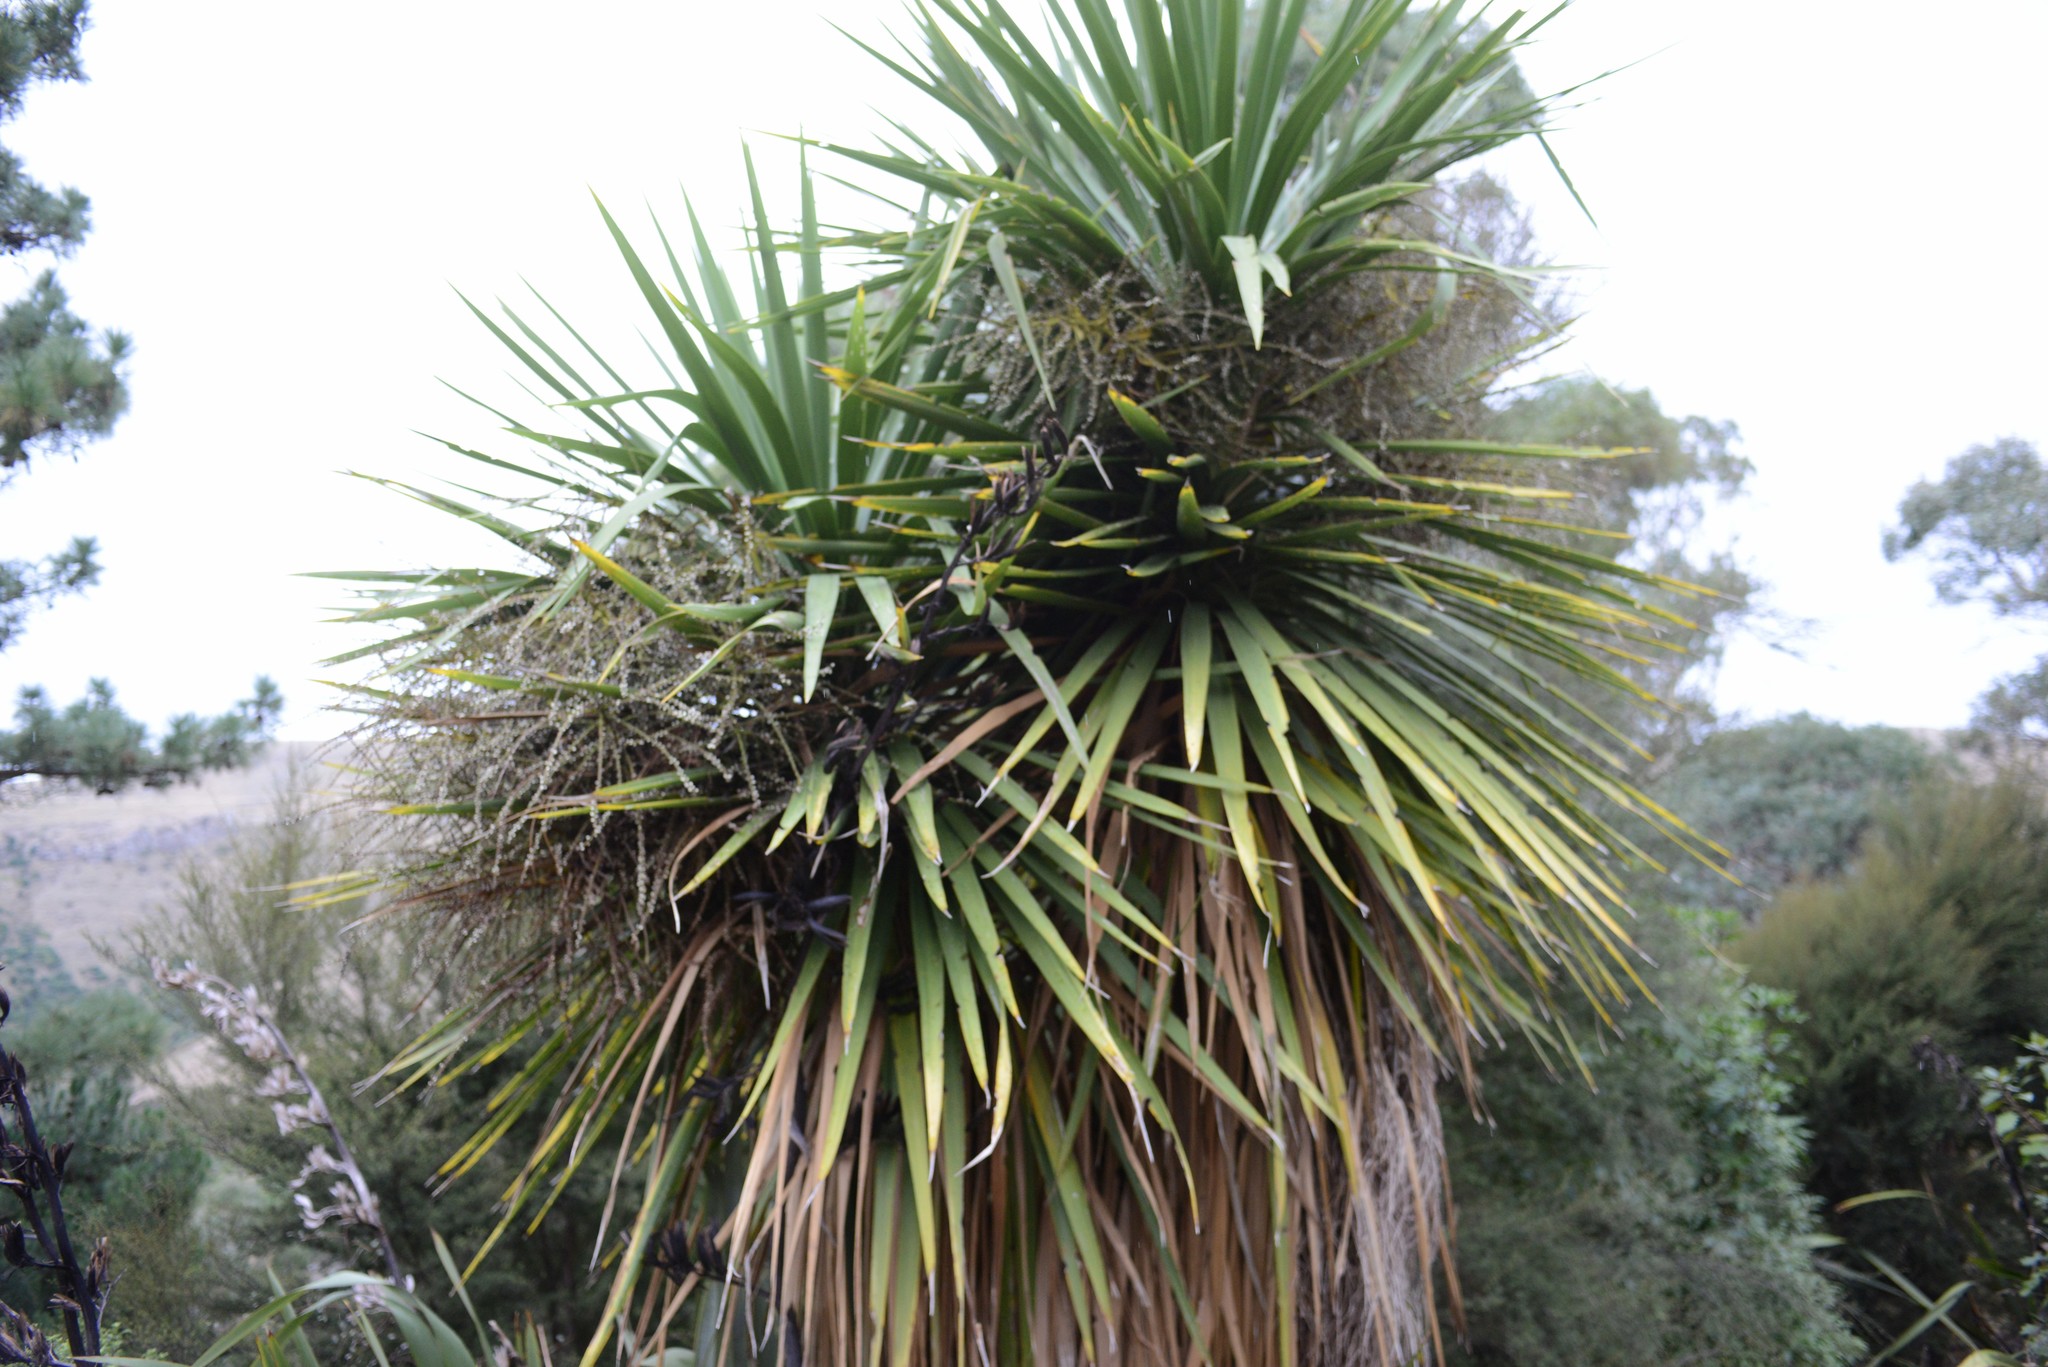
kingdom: Plantae
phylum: Tracheophyta
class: Liliopsida
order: Asparagales
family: Asparagaceae
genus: Cordyline
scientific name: Cordyline australis
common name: Cabbage-palm
